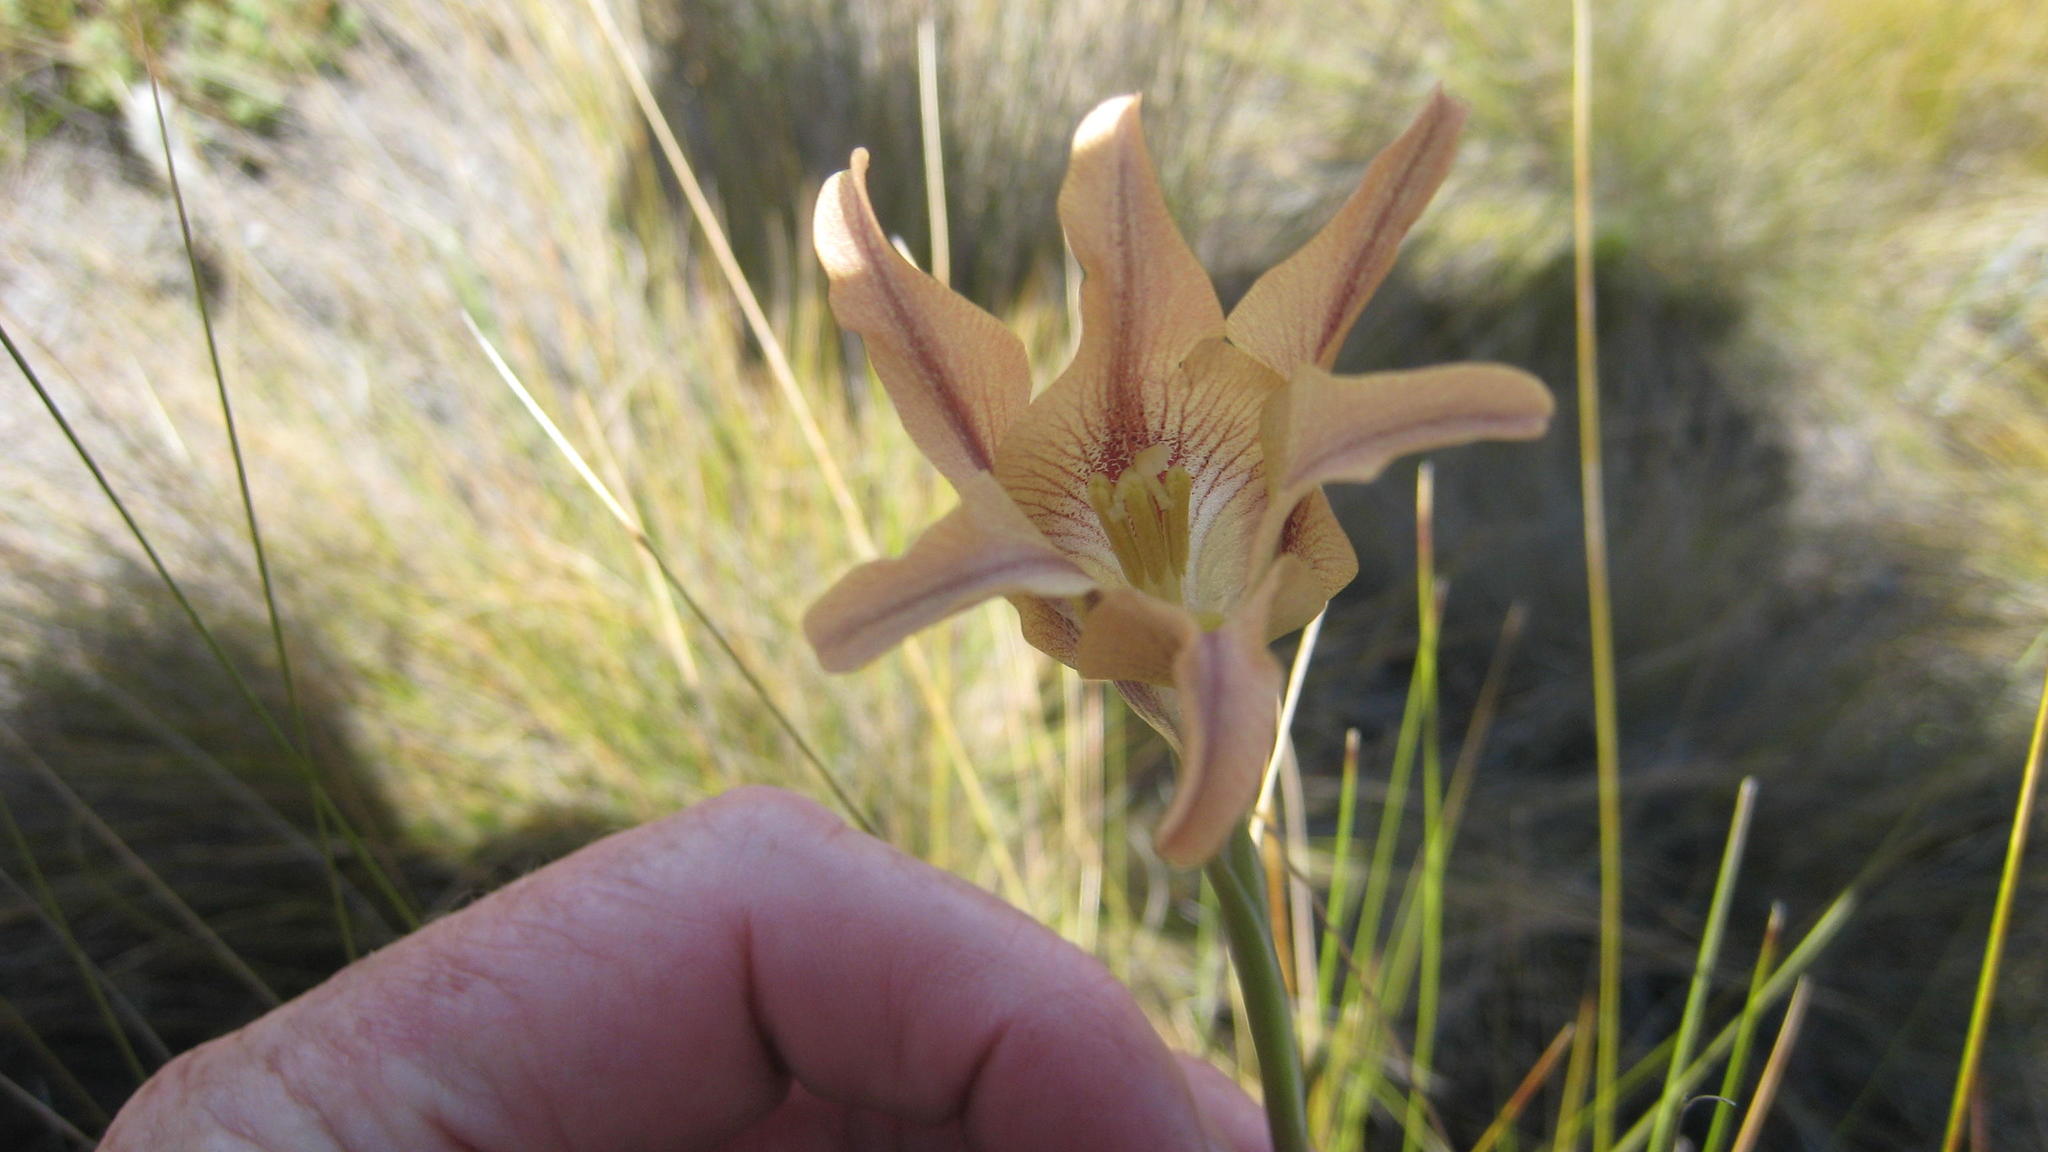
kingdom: Plantae
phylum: Tracheophyta
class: Liliopsida
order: Asparagales
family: Iridaceae
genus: Gladiolus
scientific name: Gladiolus liliaceus
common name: Large brown afrikaner
